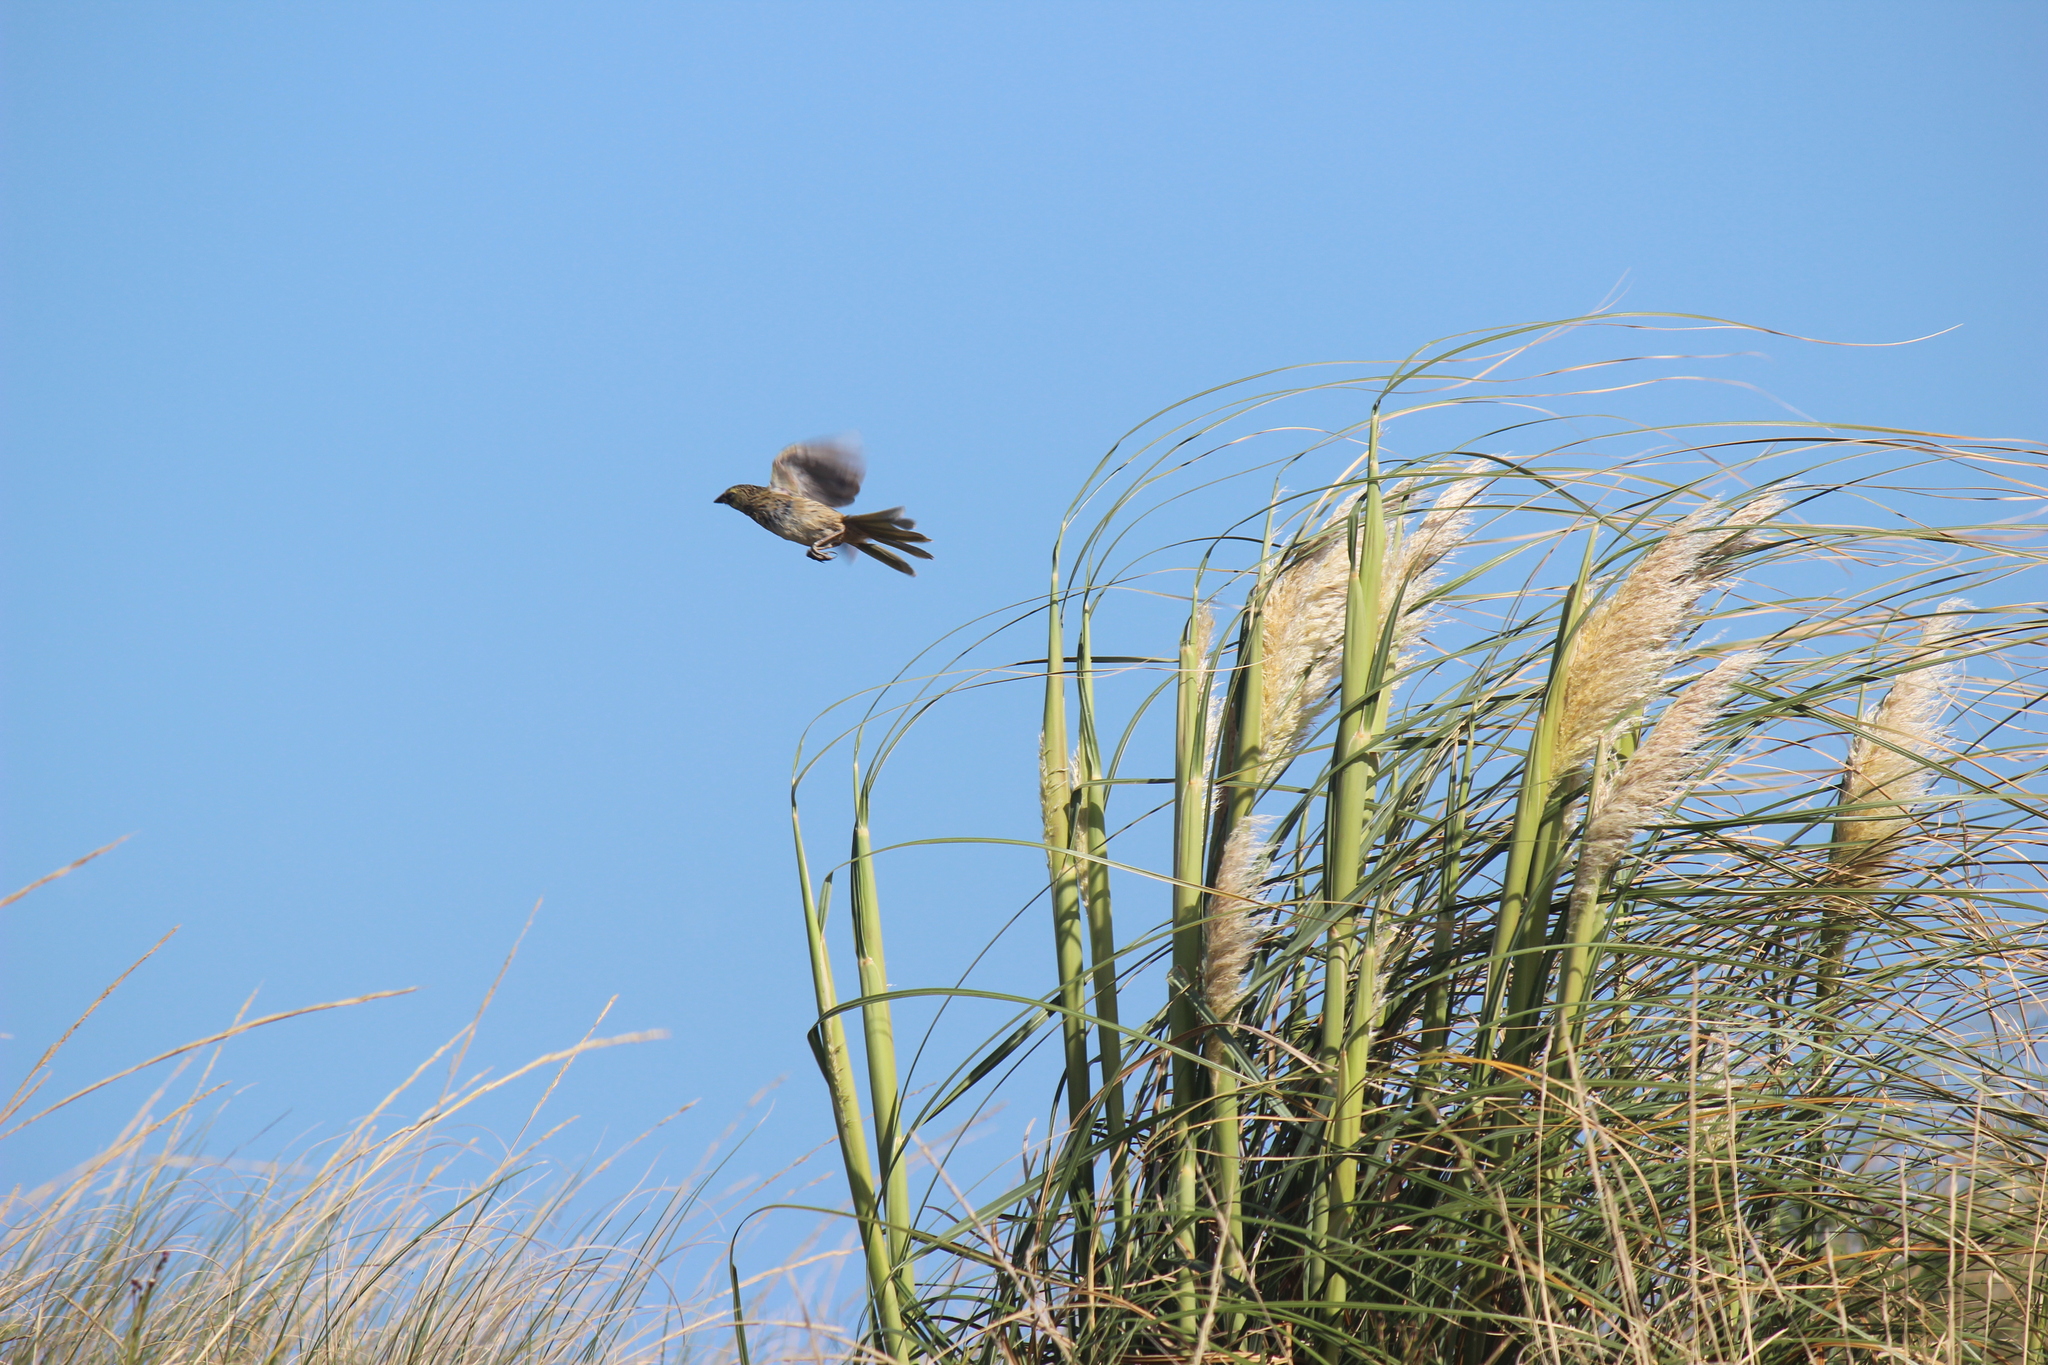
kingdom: Animalia
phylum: Chordata
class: Aves
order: Passeriformes
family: Thraupidae
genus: Embernagra
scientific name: Embernagra platensis
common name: Pampa finch
